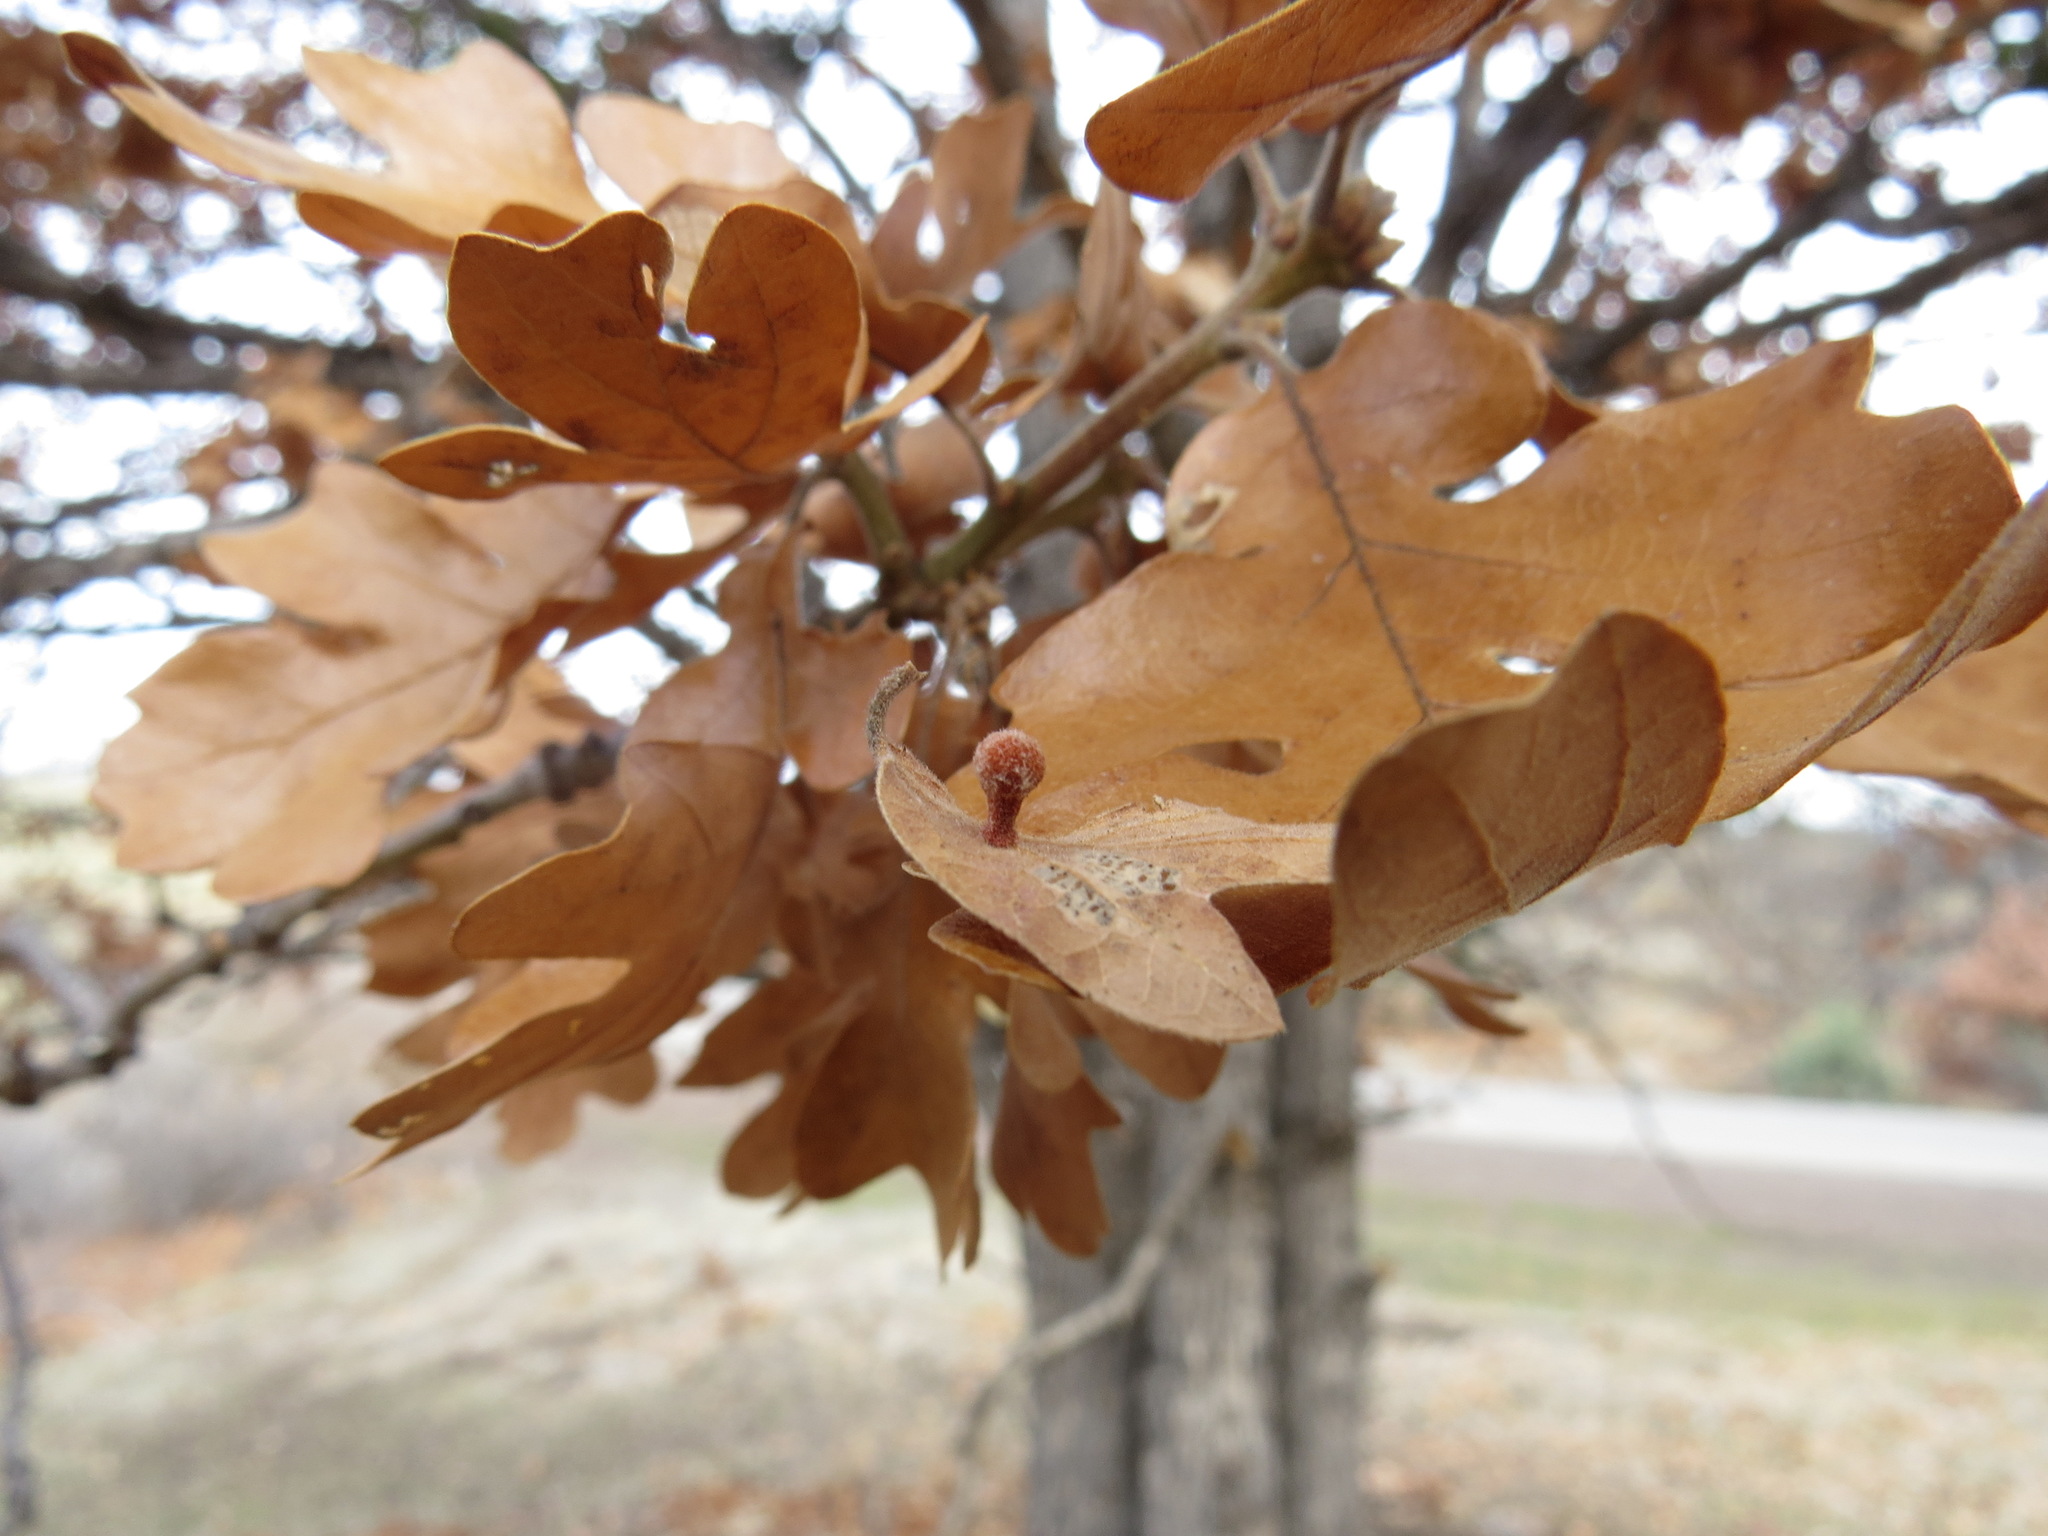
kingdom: Animalia
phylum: Arthropoda
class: Insecta
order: Hymenoptera
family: Cynipidae
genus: Trigonaspis
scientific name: Trigonaspis
